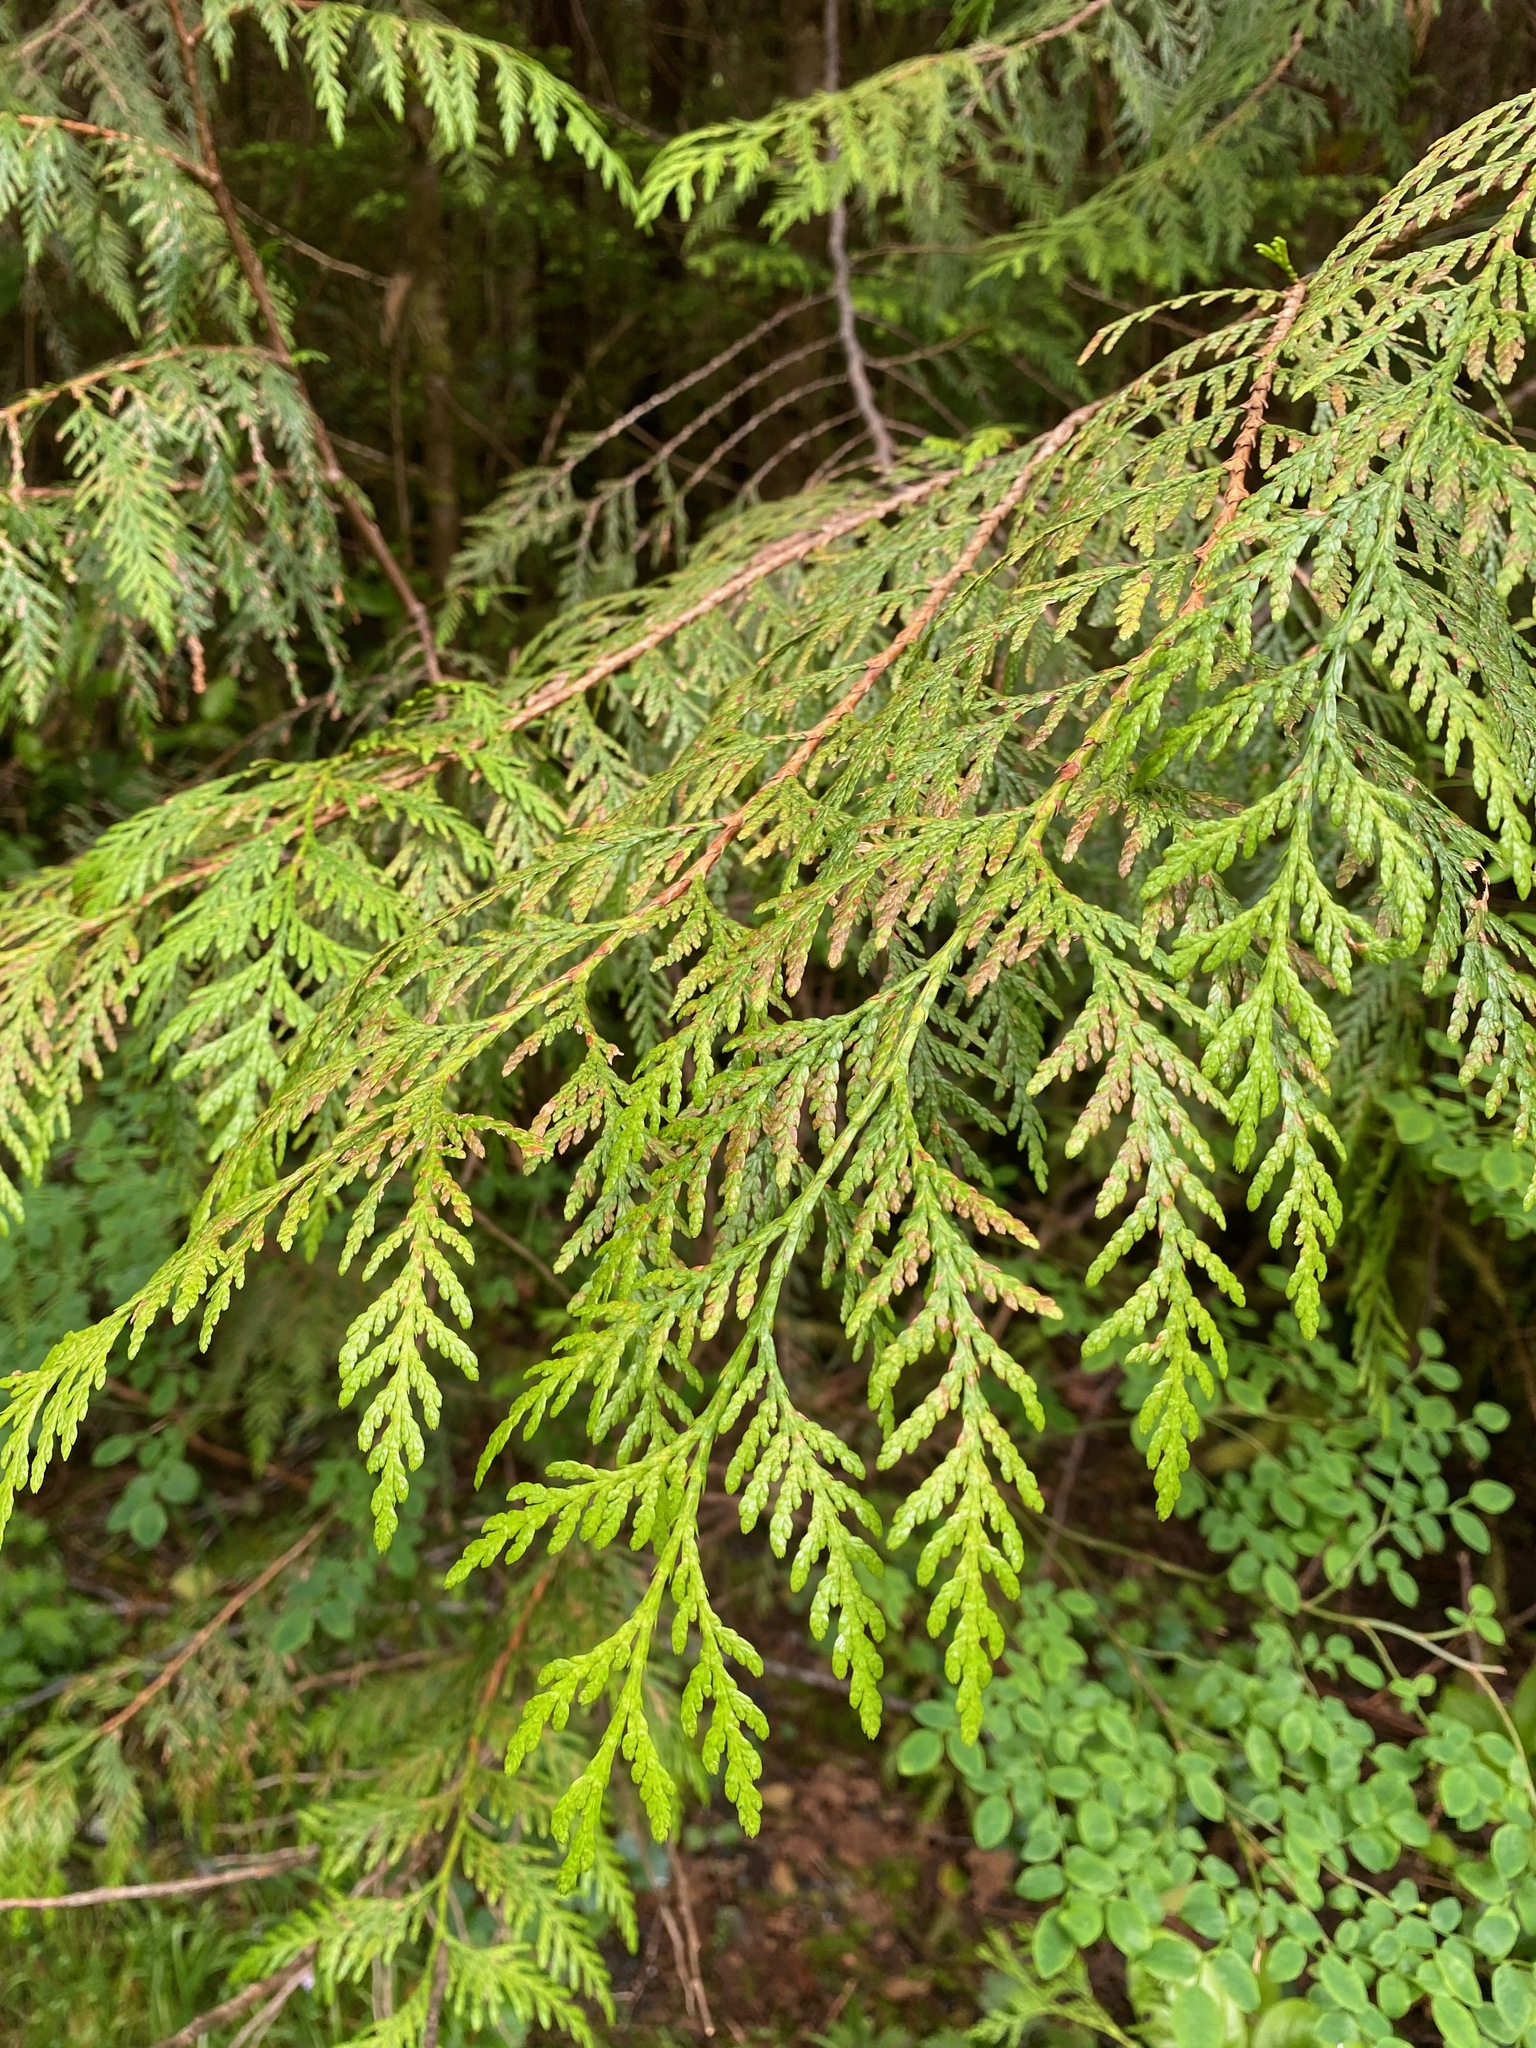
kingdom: Plantae
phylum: Tracheophyta
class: Pinopsida
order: Pinales
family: Cupressaceae
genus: Thuja
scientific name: Thuja plicata
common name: Western red-cedar
